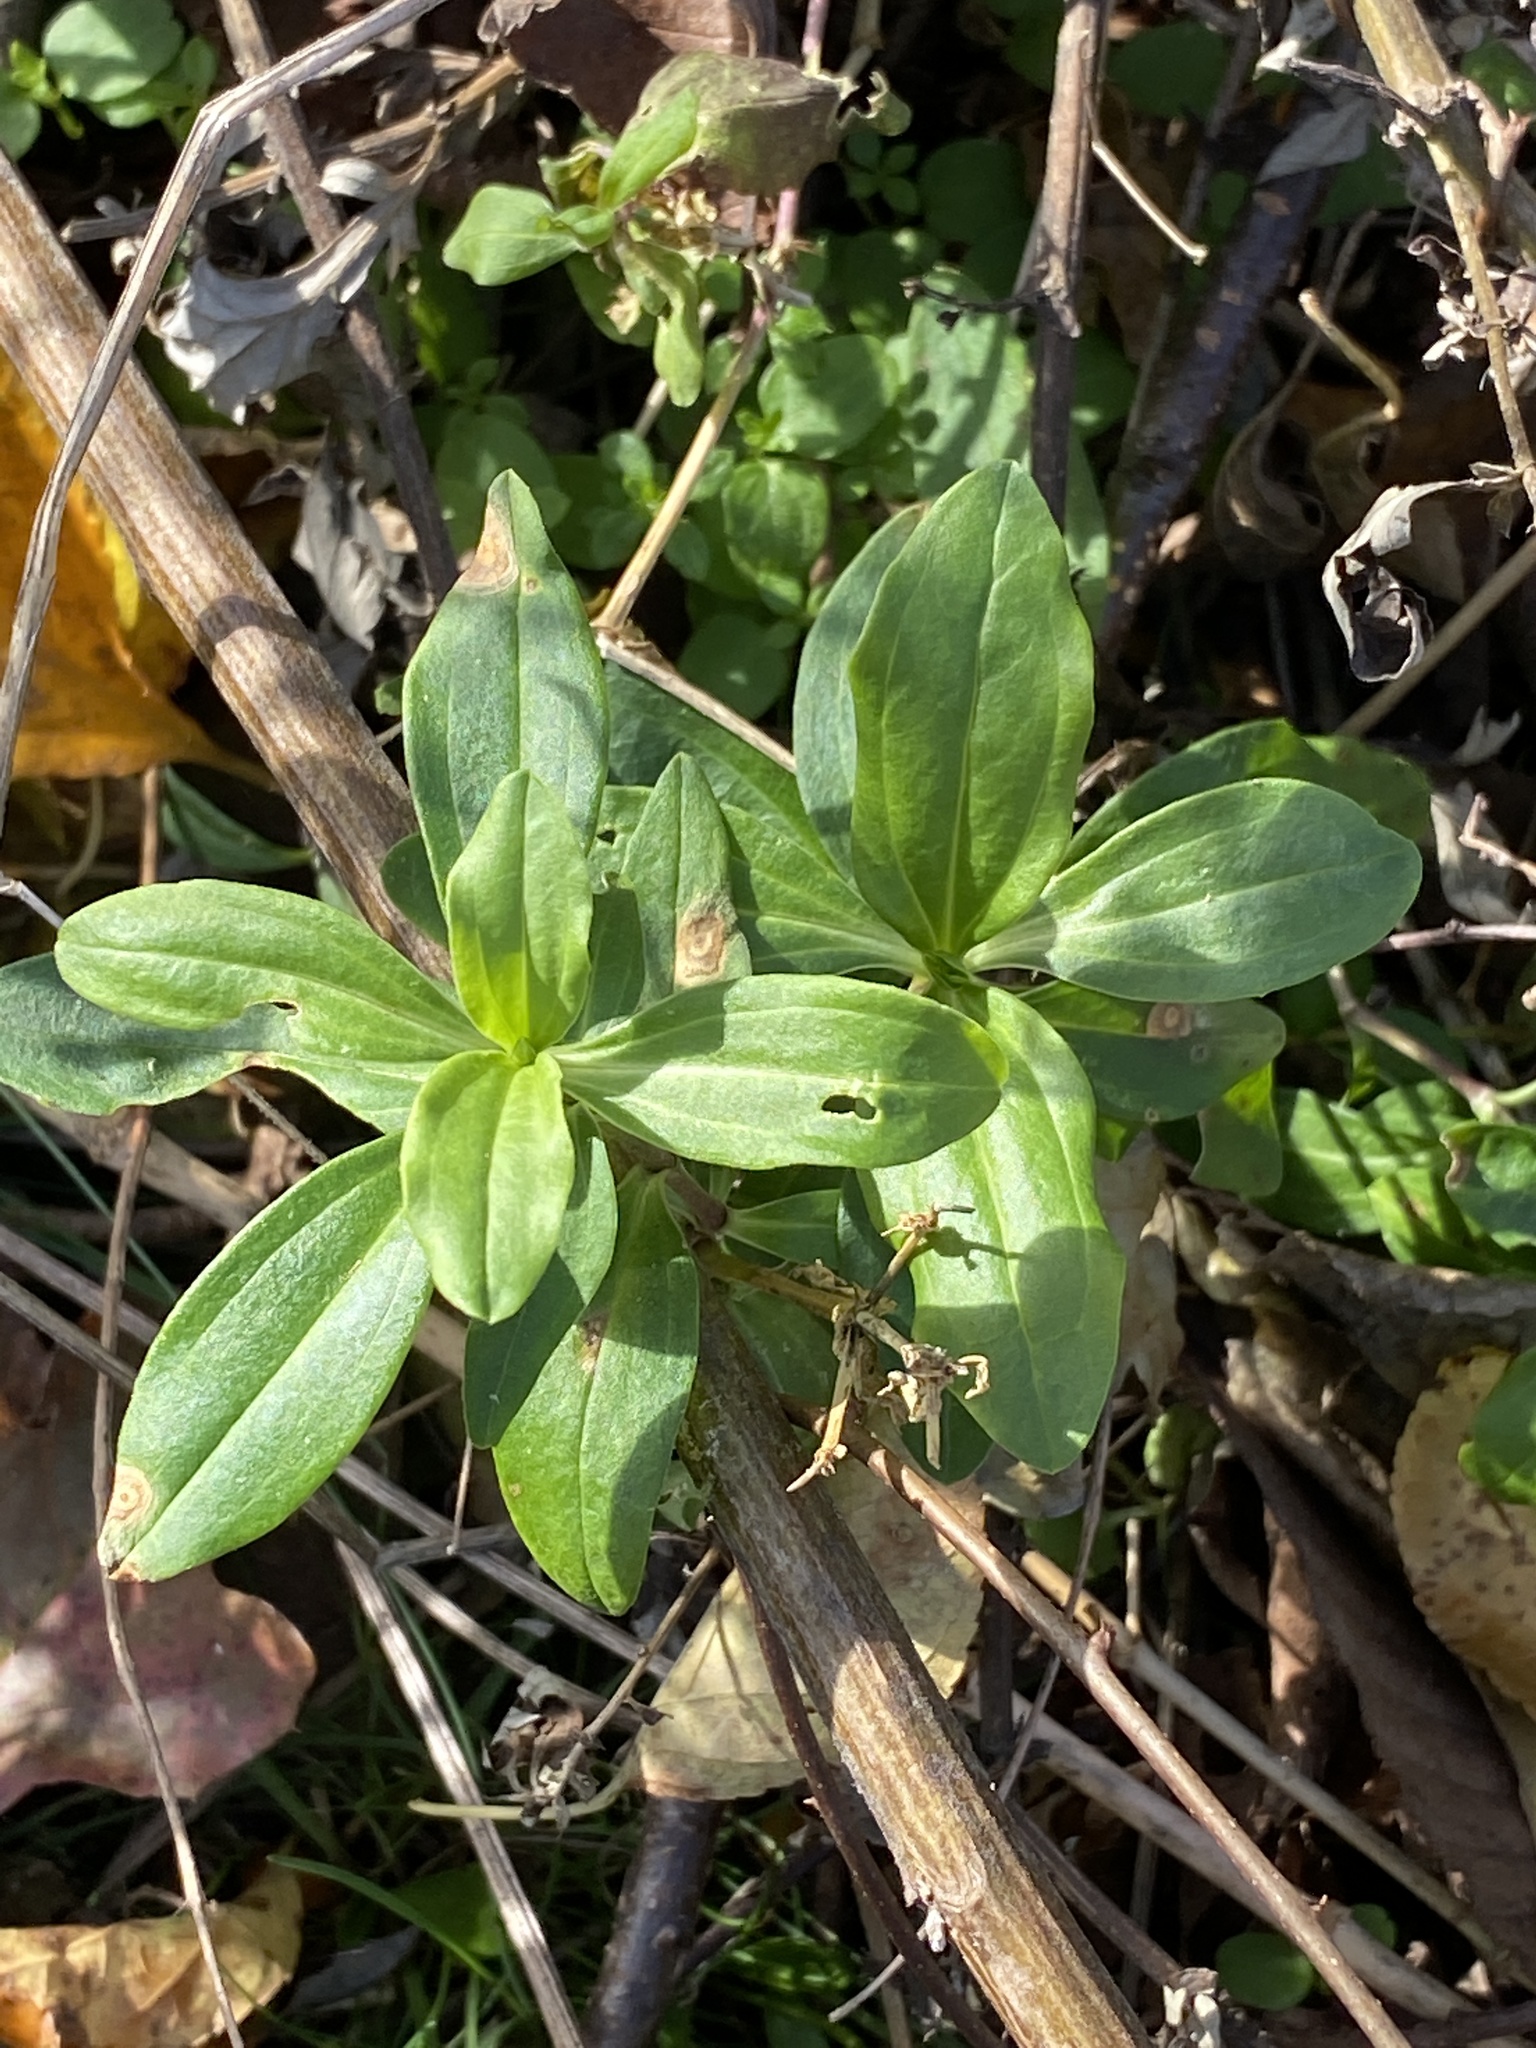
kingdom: Plantae
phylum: Tracheophyta
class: Magnoliopsida
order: Caryophyllales
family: Caryophyllaceae
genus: Saponaria
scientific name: Saponaria officinalis
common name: Soapwort
